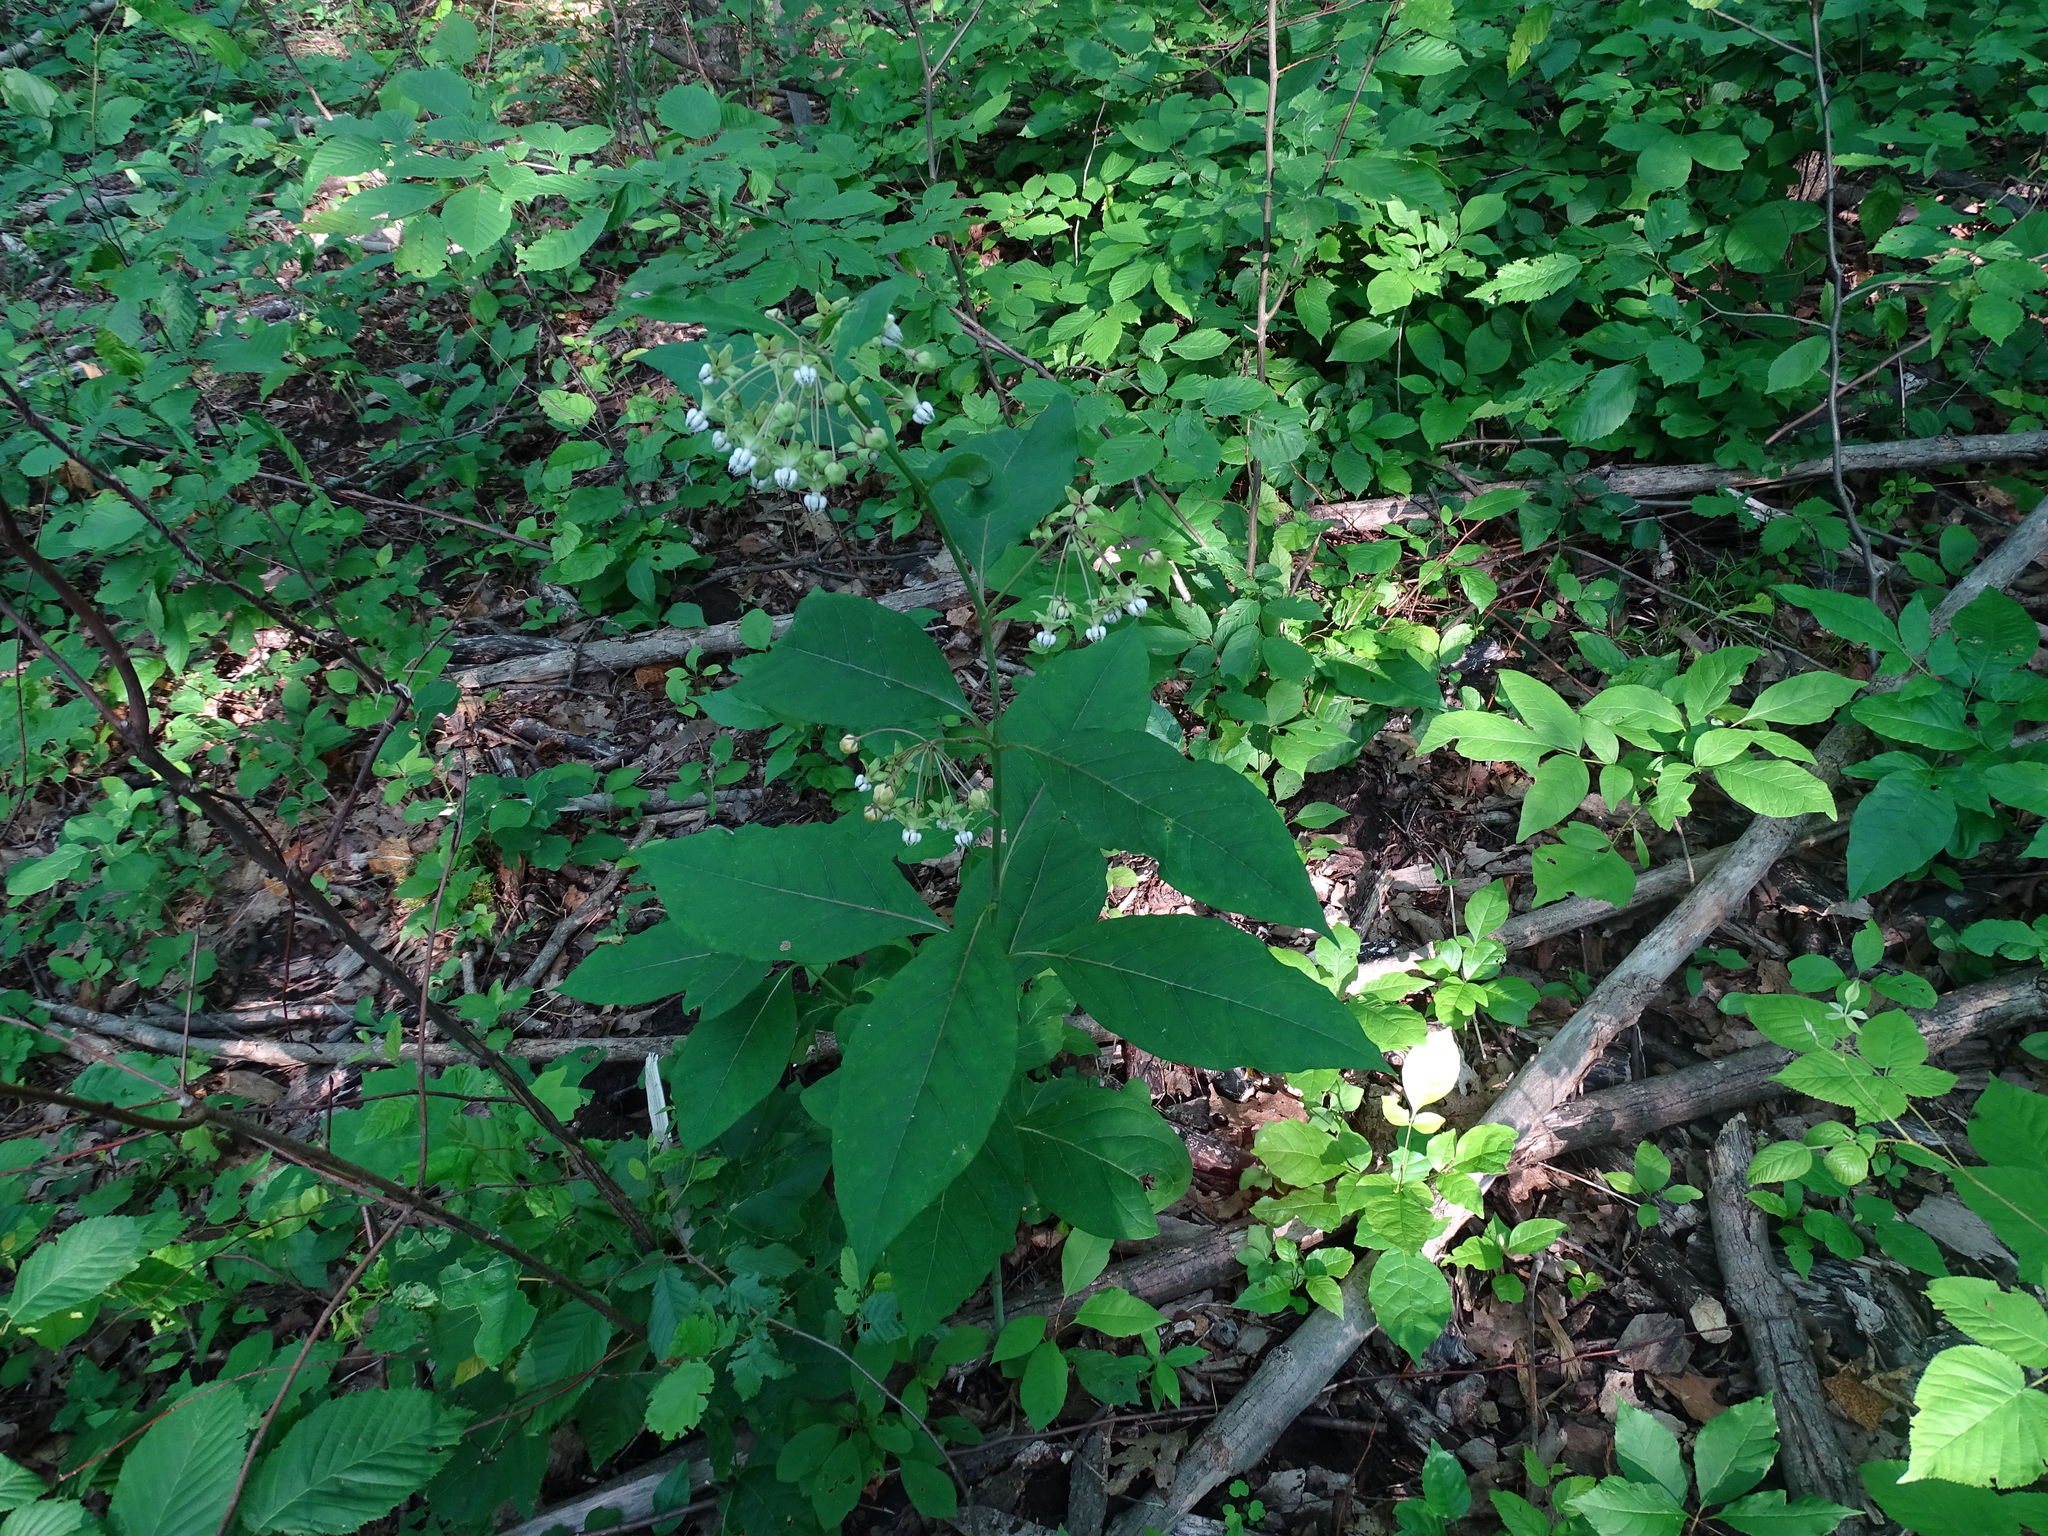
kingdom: Plantae
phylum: Tracheophyta
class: Magnoliopsida
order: Gentianales
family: Apocynaceae
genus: Asclepias
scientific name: Asclepias exaltata
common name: Poke milkweed
